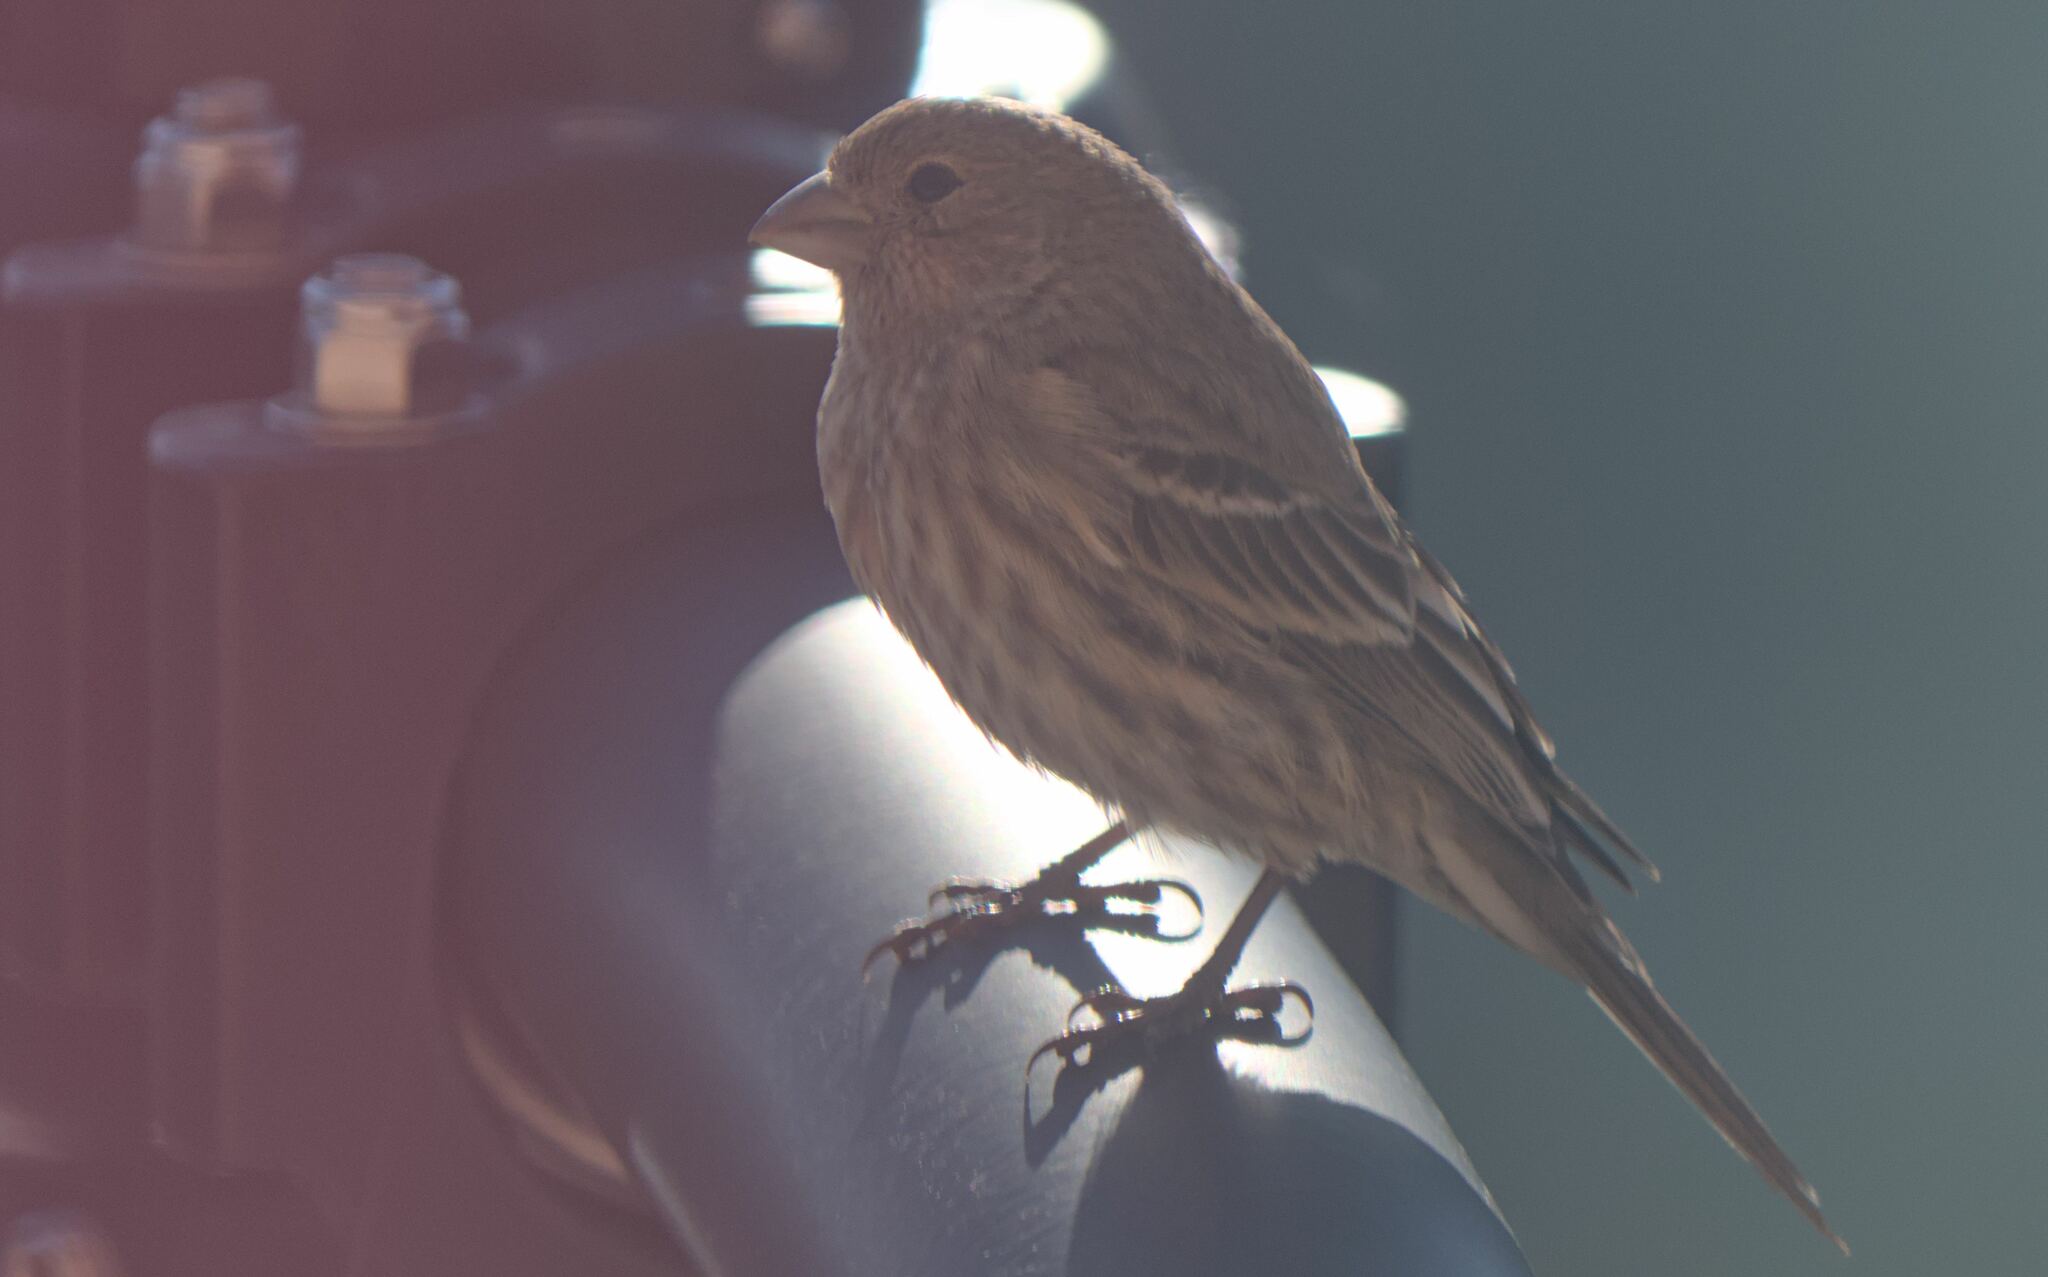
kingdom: Animalia
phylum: Chordata
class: Aves
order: Passeriformes
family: Fringillidae
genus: Haemorhous
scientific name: Haemorhous mexicanus
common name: House finch
